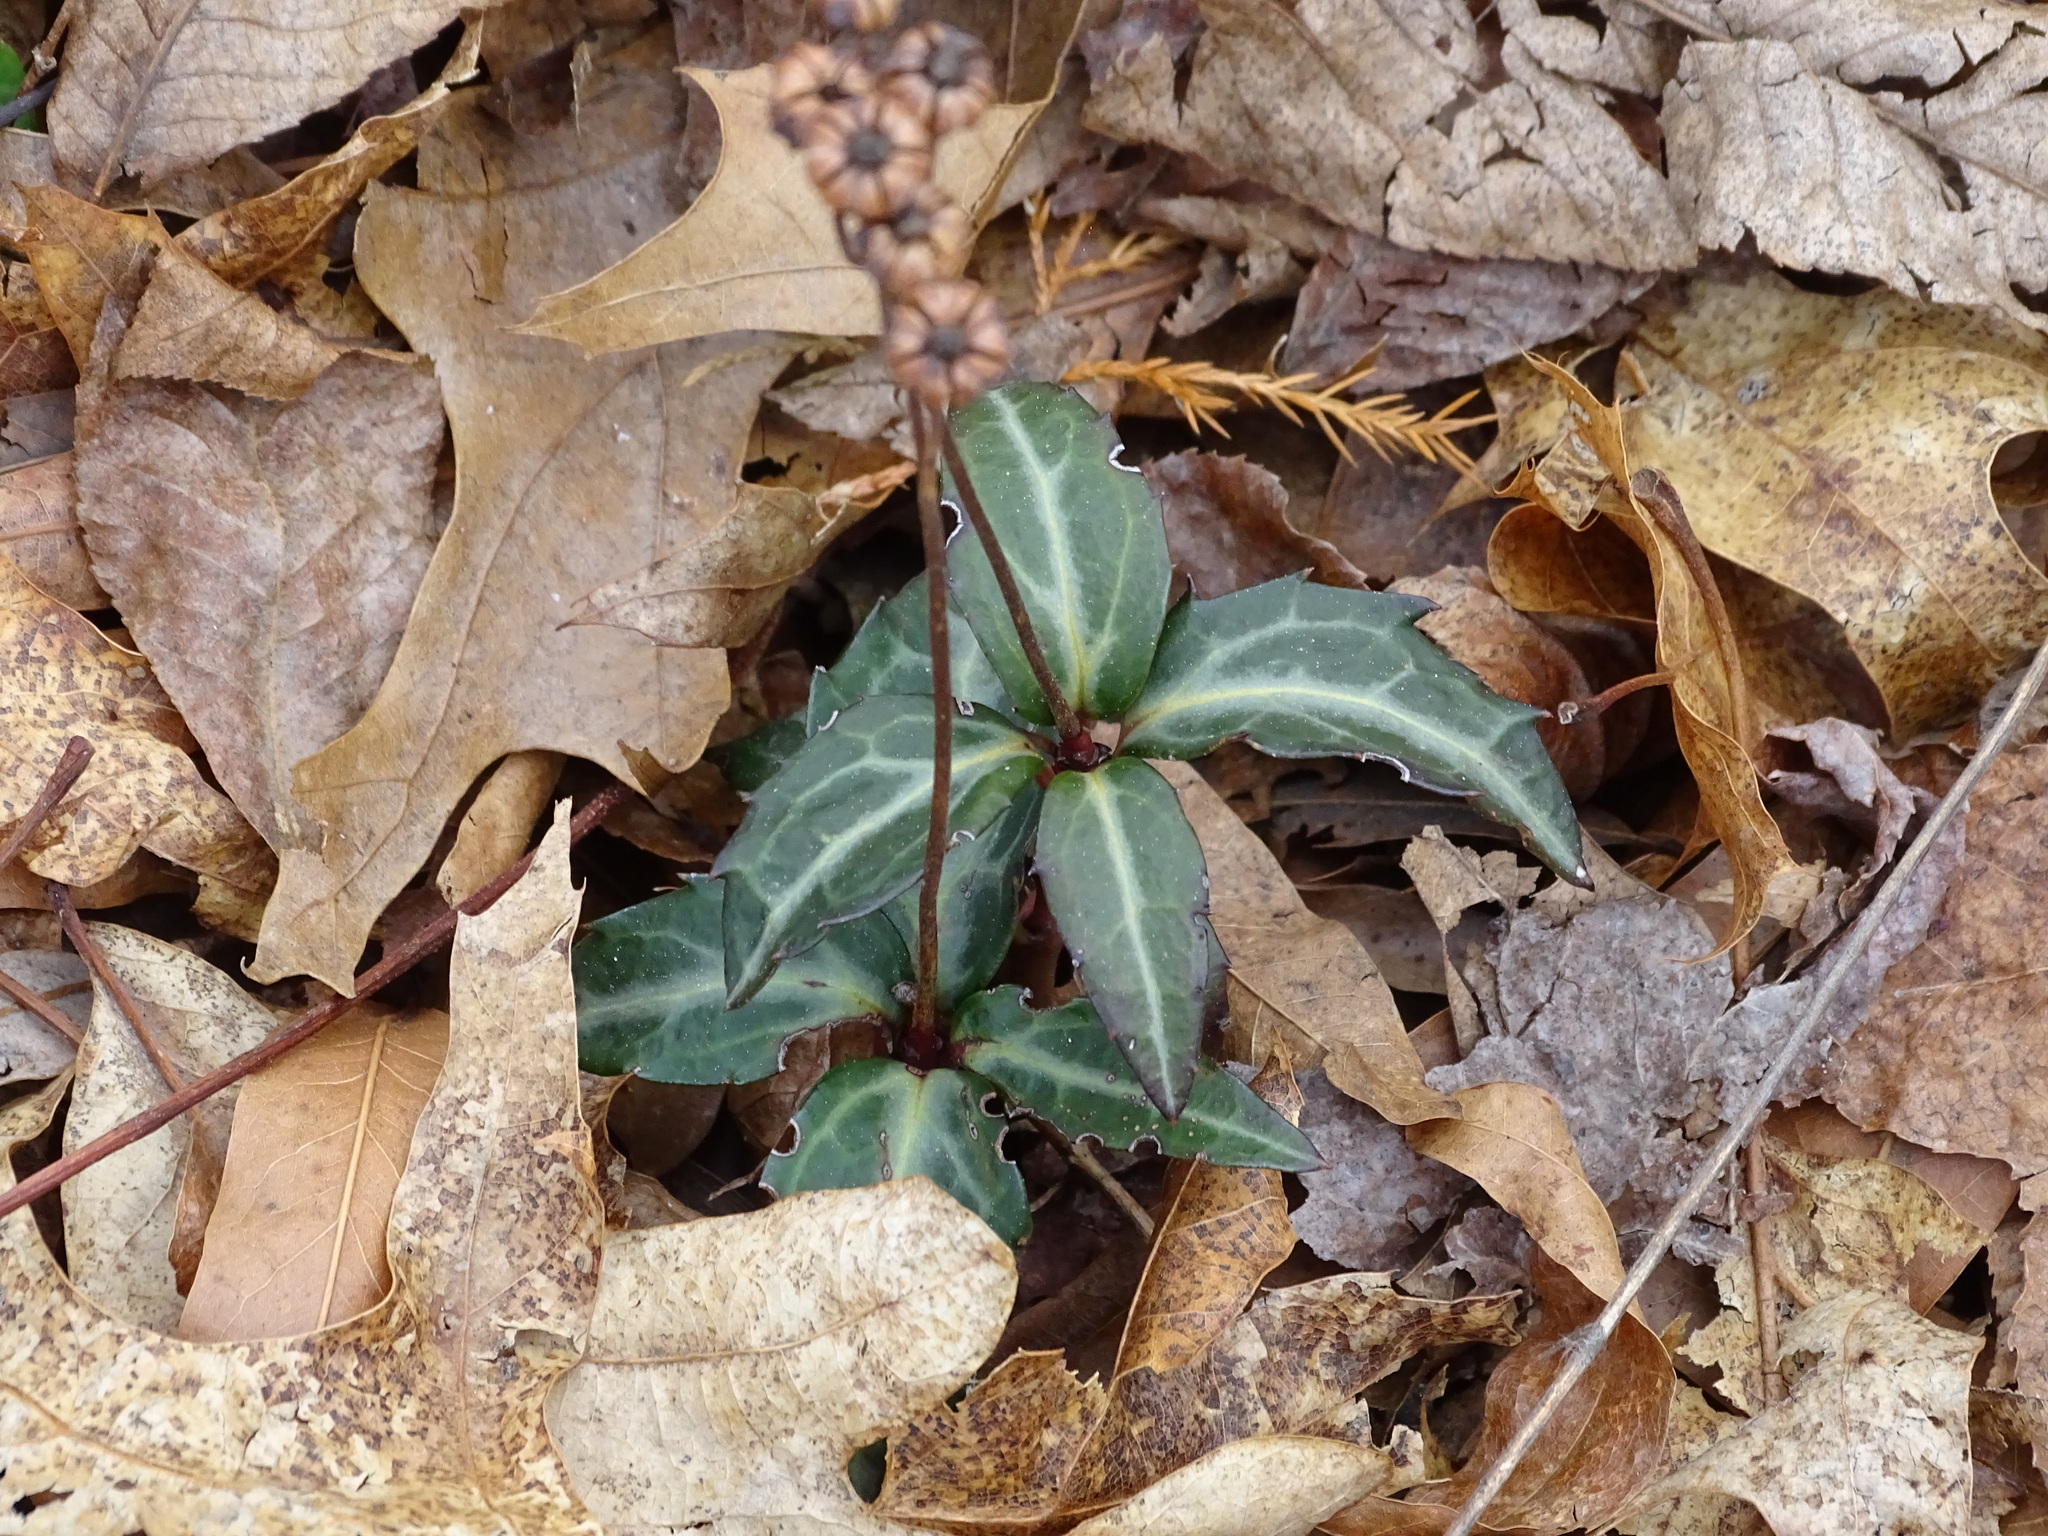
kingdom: Plantae
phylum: Tracheophyta
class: Magnoliopsida
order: Ericales
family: Ericaceae
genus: Chimaphila
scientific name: Chimaphila maculata
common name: Spotted pipsissewa
